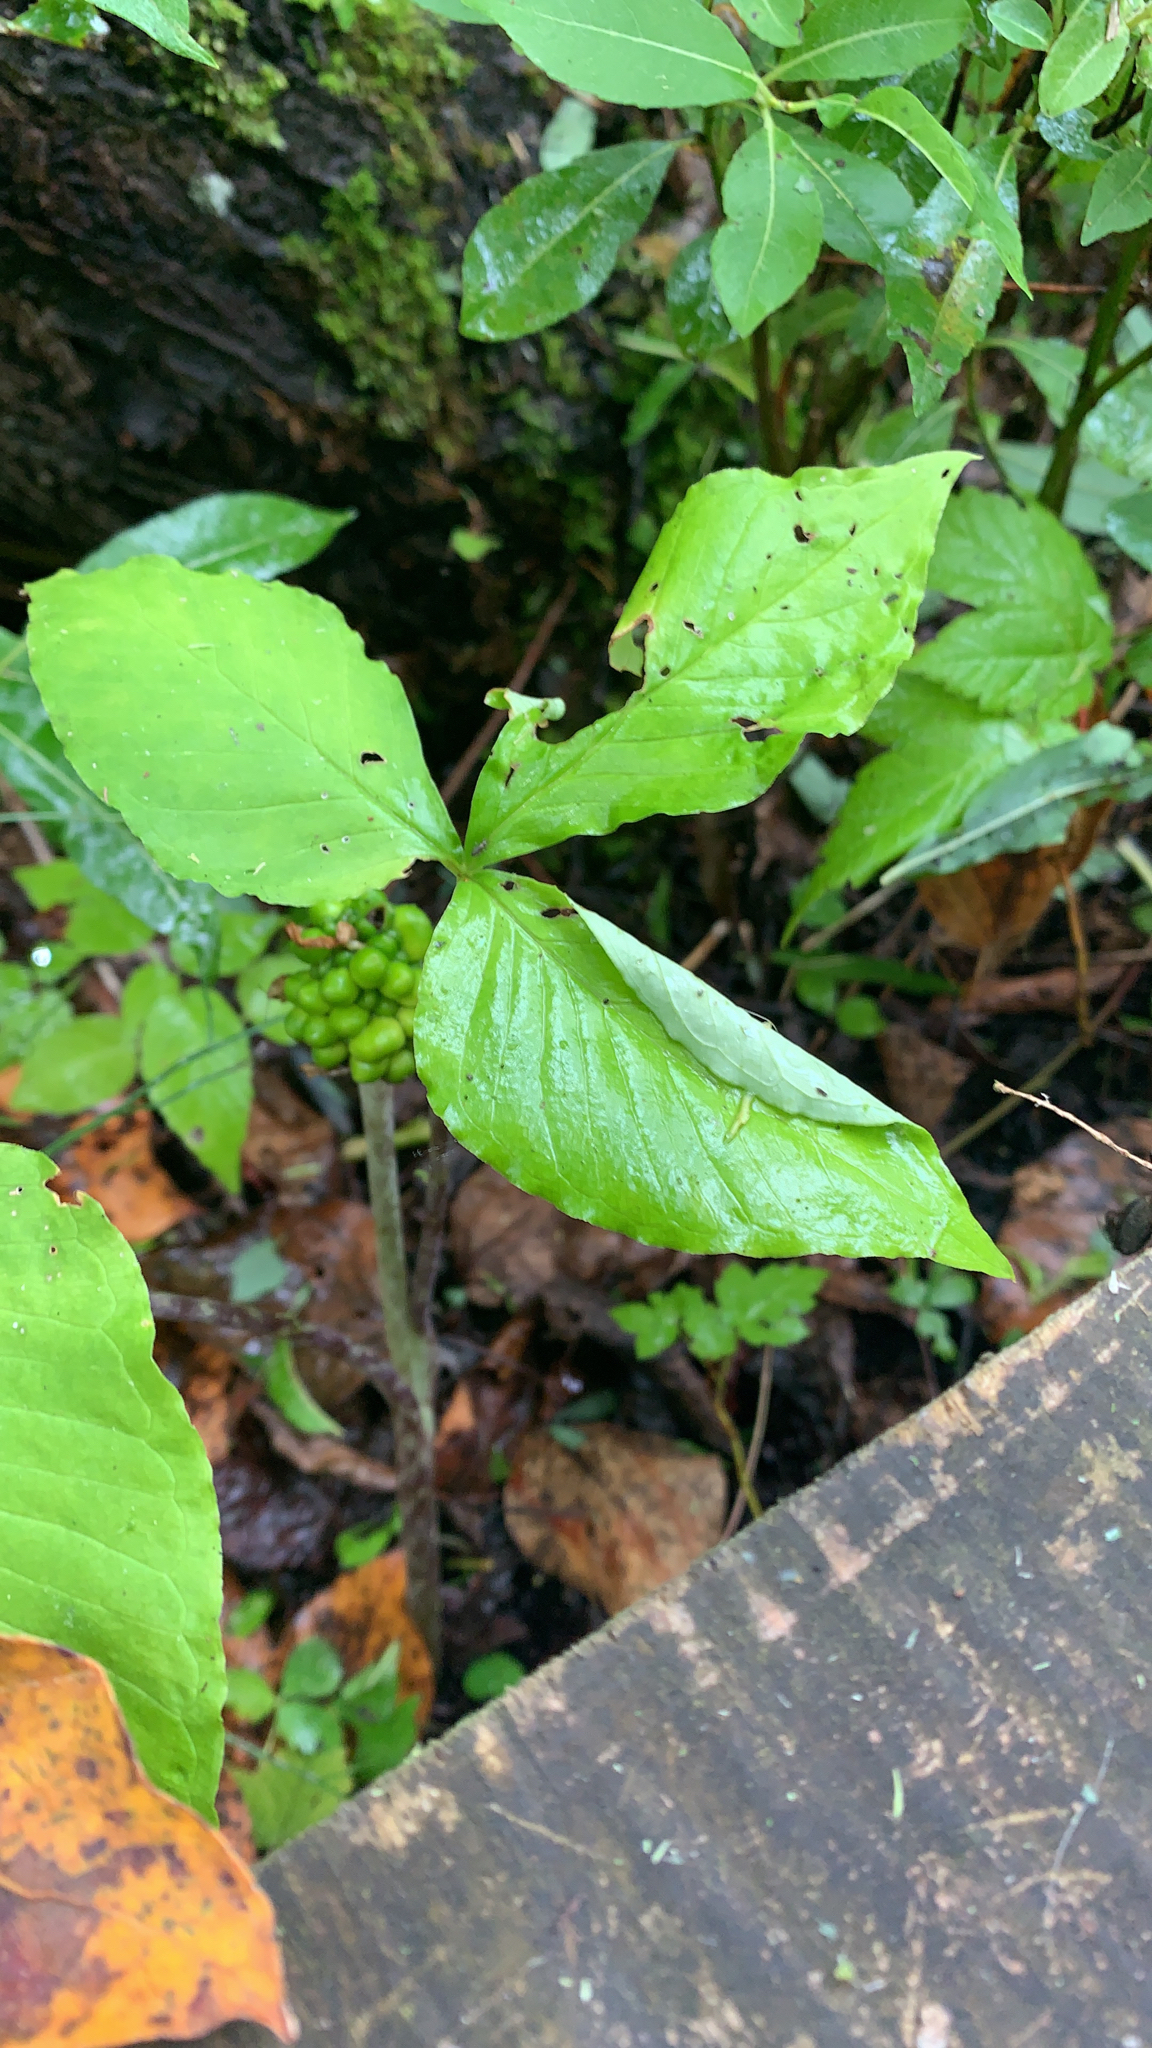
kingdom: Plantae
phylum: Tracheophyta
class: Liliopsida
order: Alismatales
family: Araceae
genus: Arisaema
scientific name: Arisaema triphyllum
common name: Jack-in-the-pulpit
